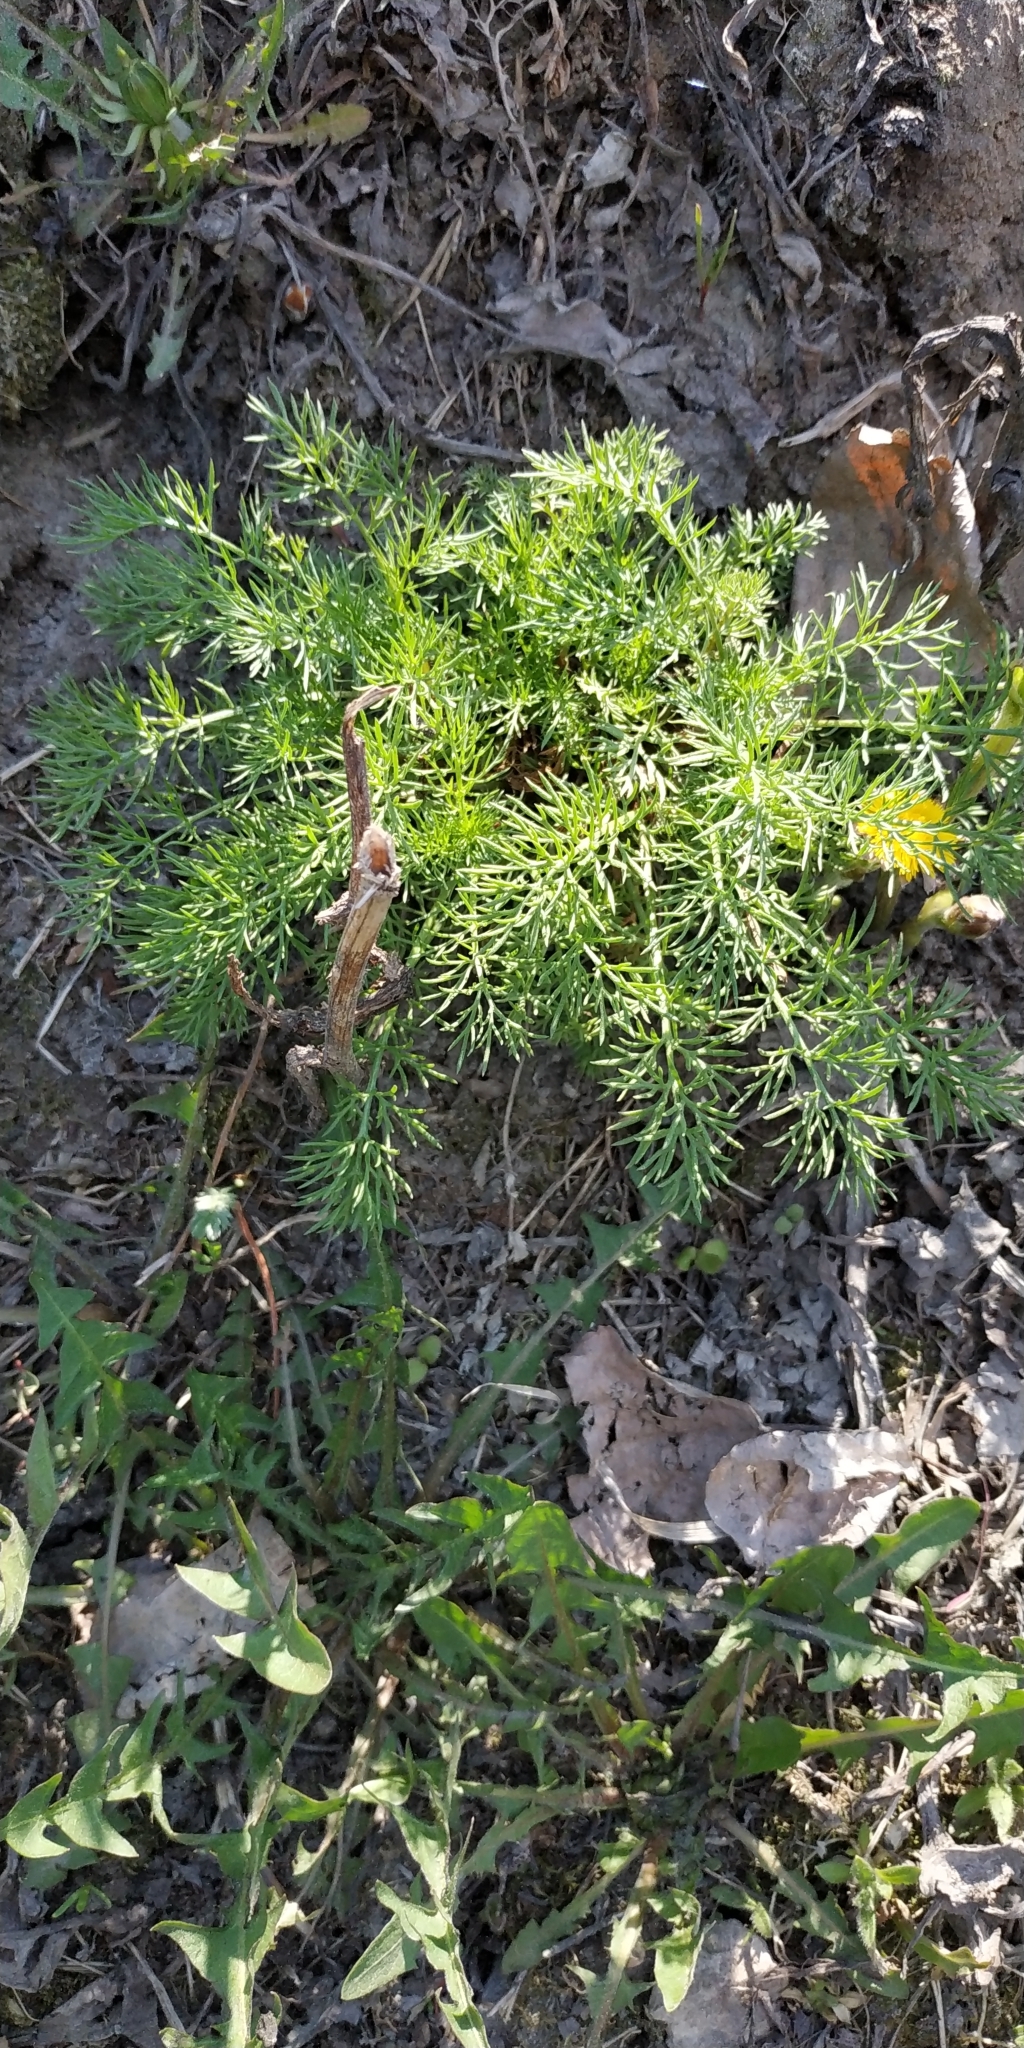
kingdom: Plantae
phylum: Tracheophyta
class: Magnoliopsida
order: Asterales
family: Asteraceae
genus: Tripleurospermum
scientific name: Tripleurospermum inodorum
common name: Scentless mayweed
